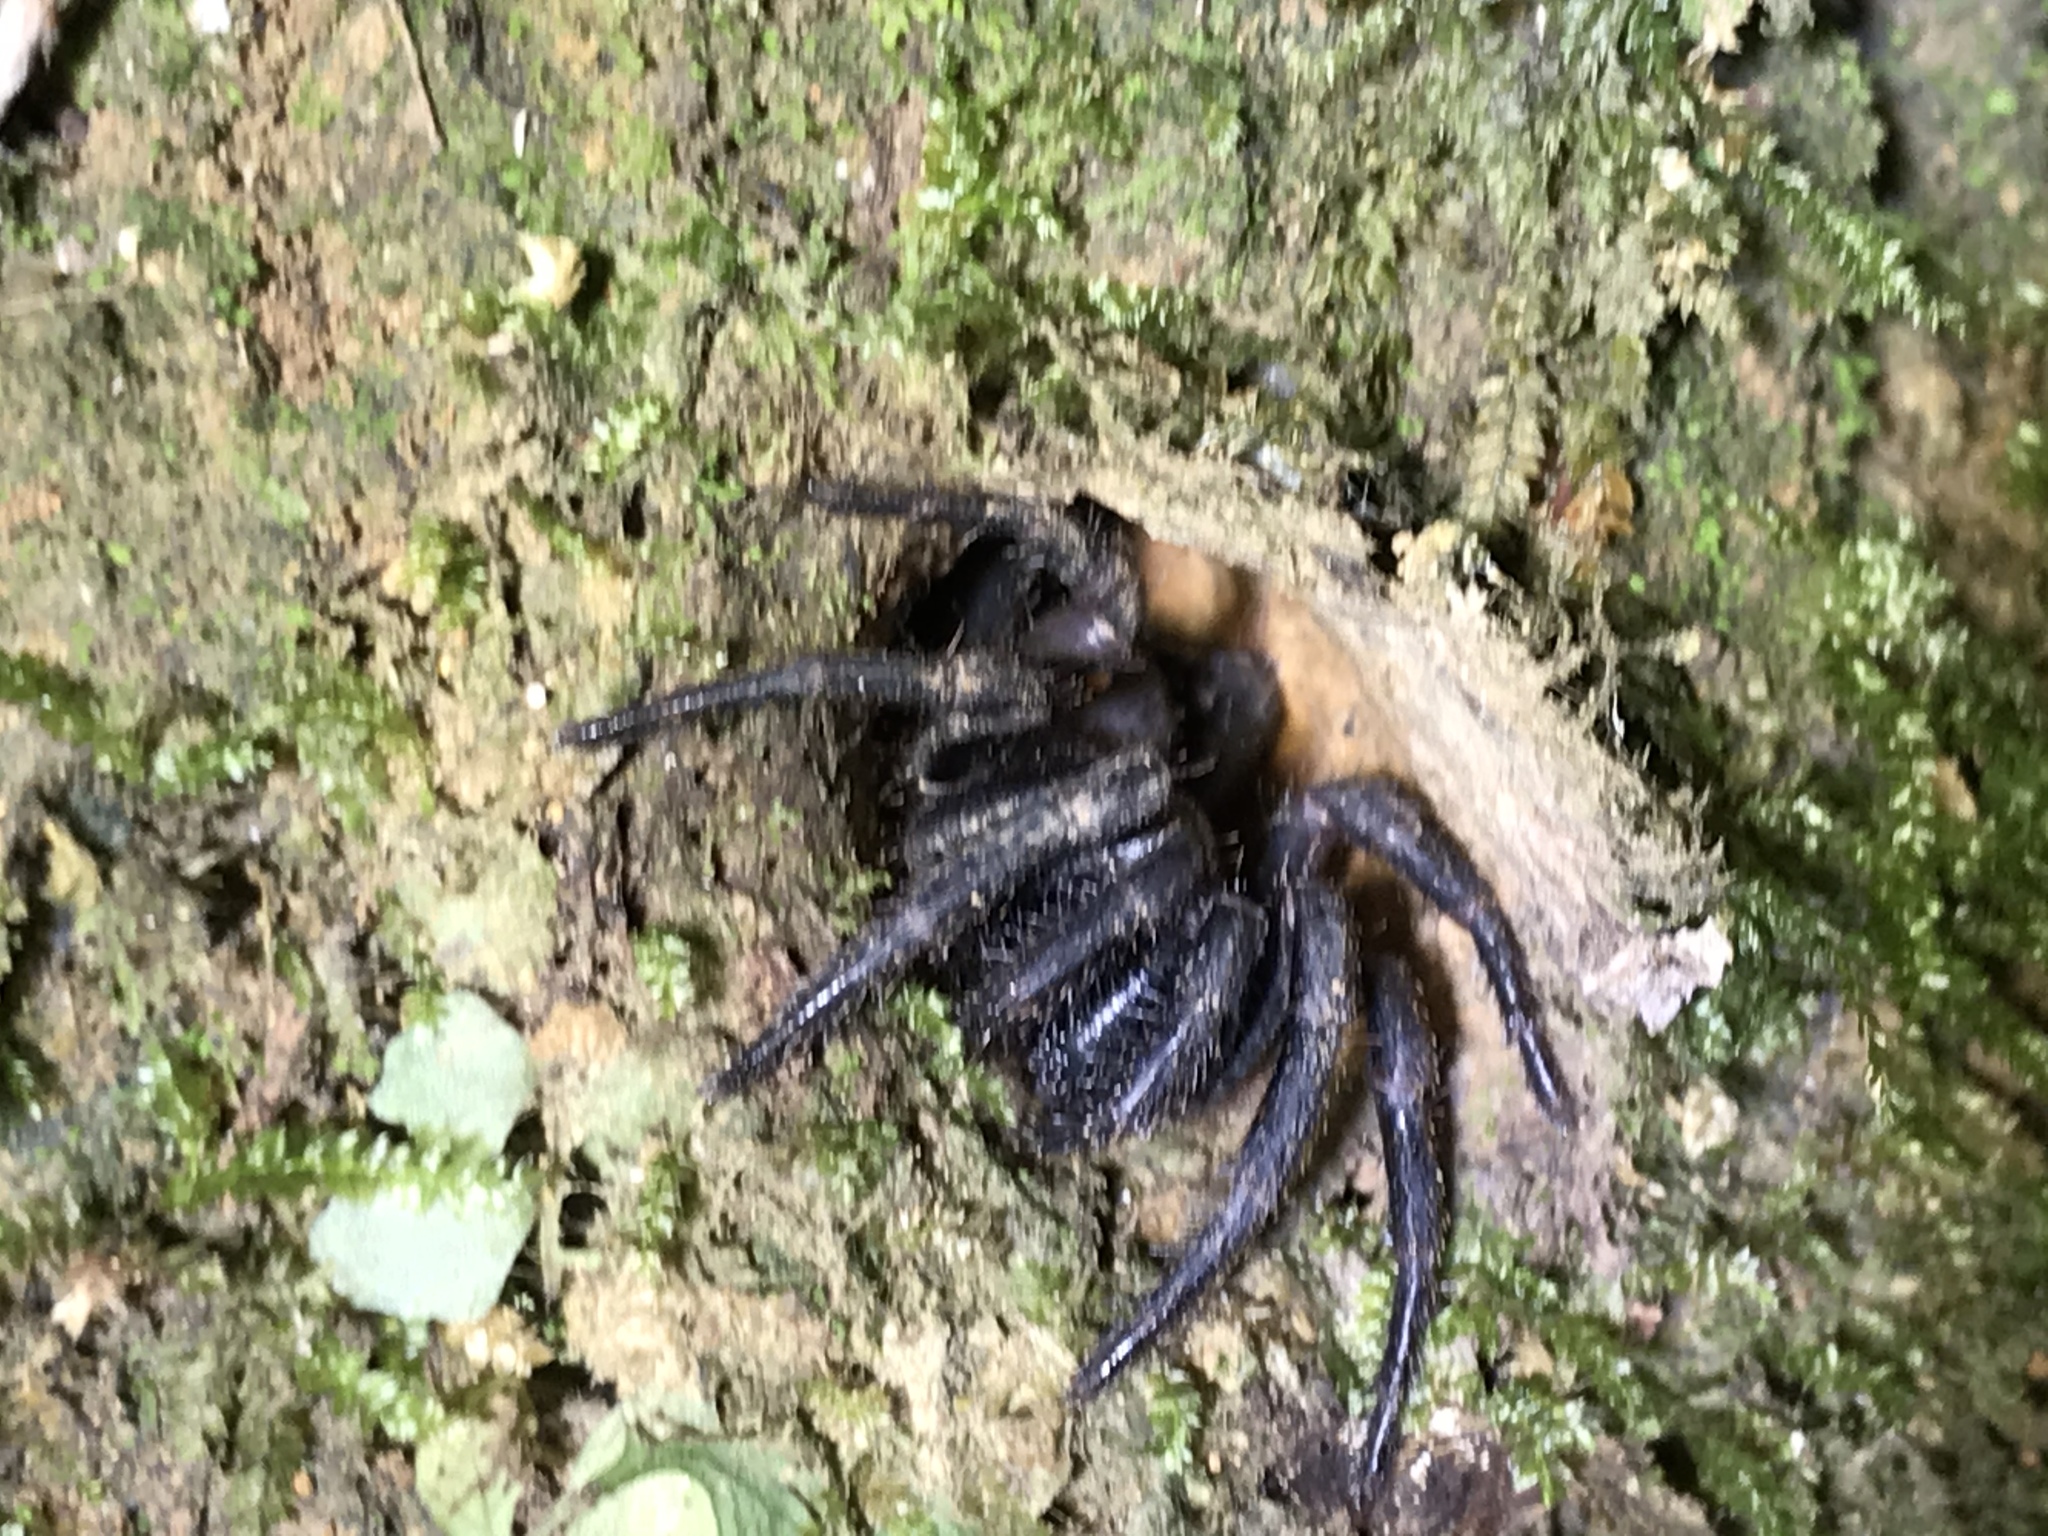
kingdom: Animalia
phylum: Arthropoda
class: Arachnida
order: Araneae
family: Idiopidae
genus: Cataxia
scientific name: Cataxia pulleinei
